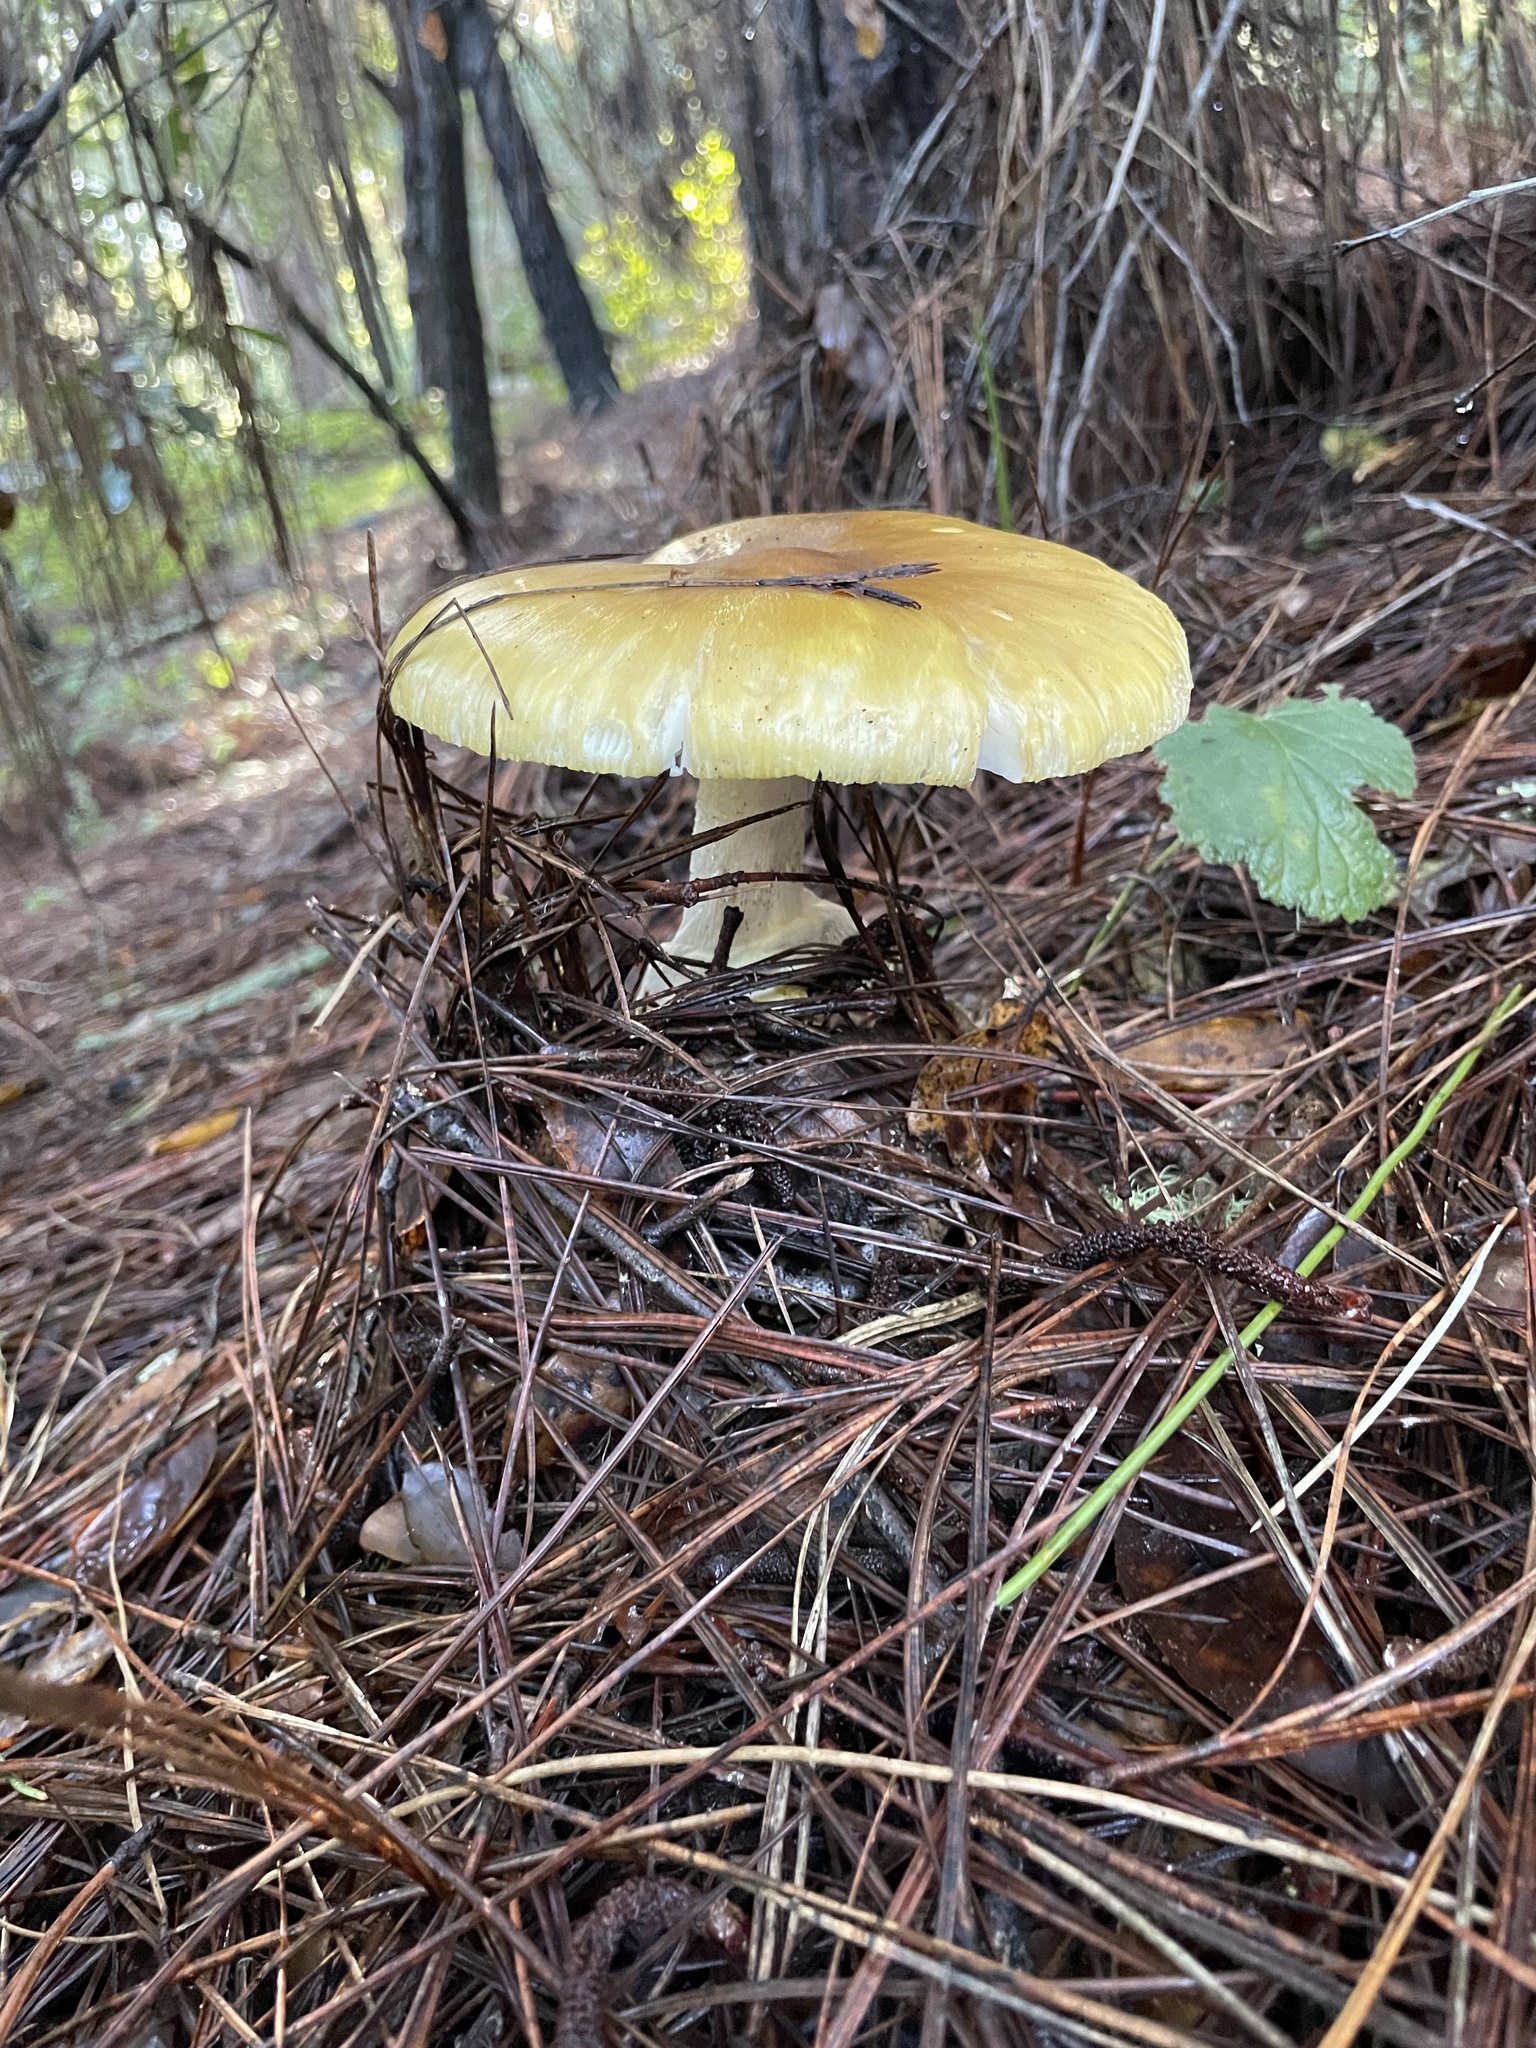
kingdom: Fungi
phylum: Basidiomycota
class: Agaricomycetes
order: Agaricales
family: Amanitaceae
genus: Amanita
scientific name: Amanita augusta
